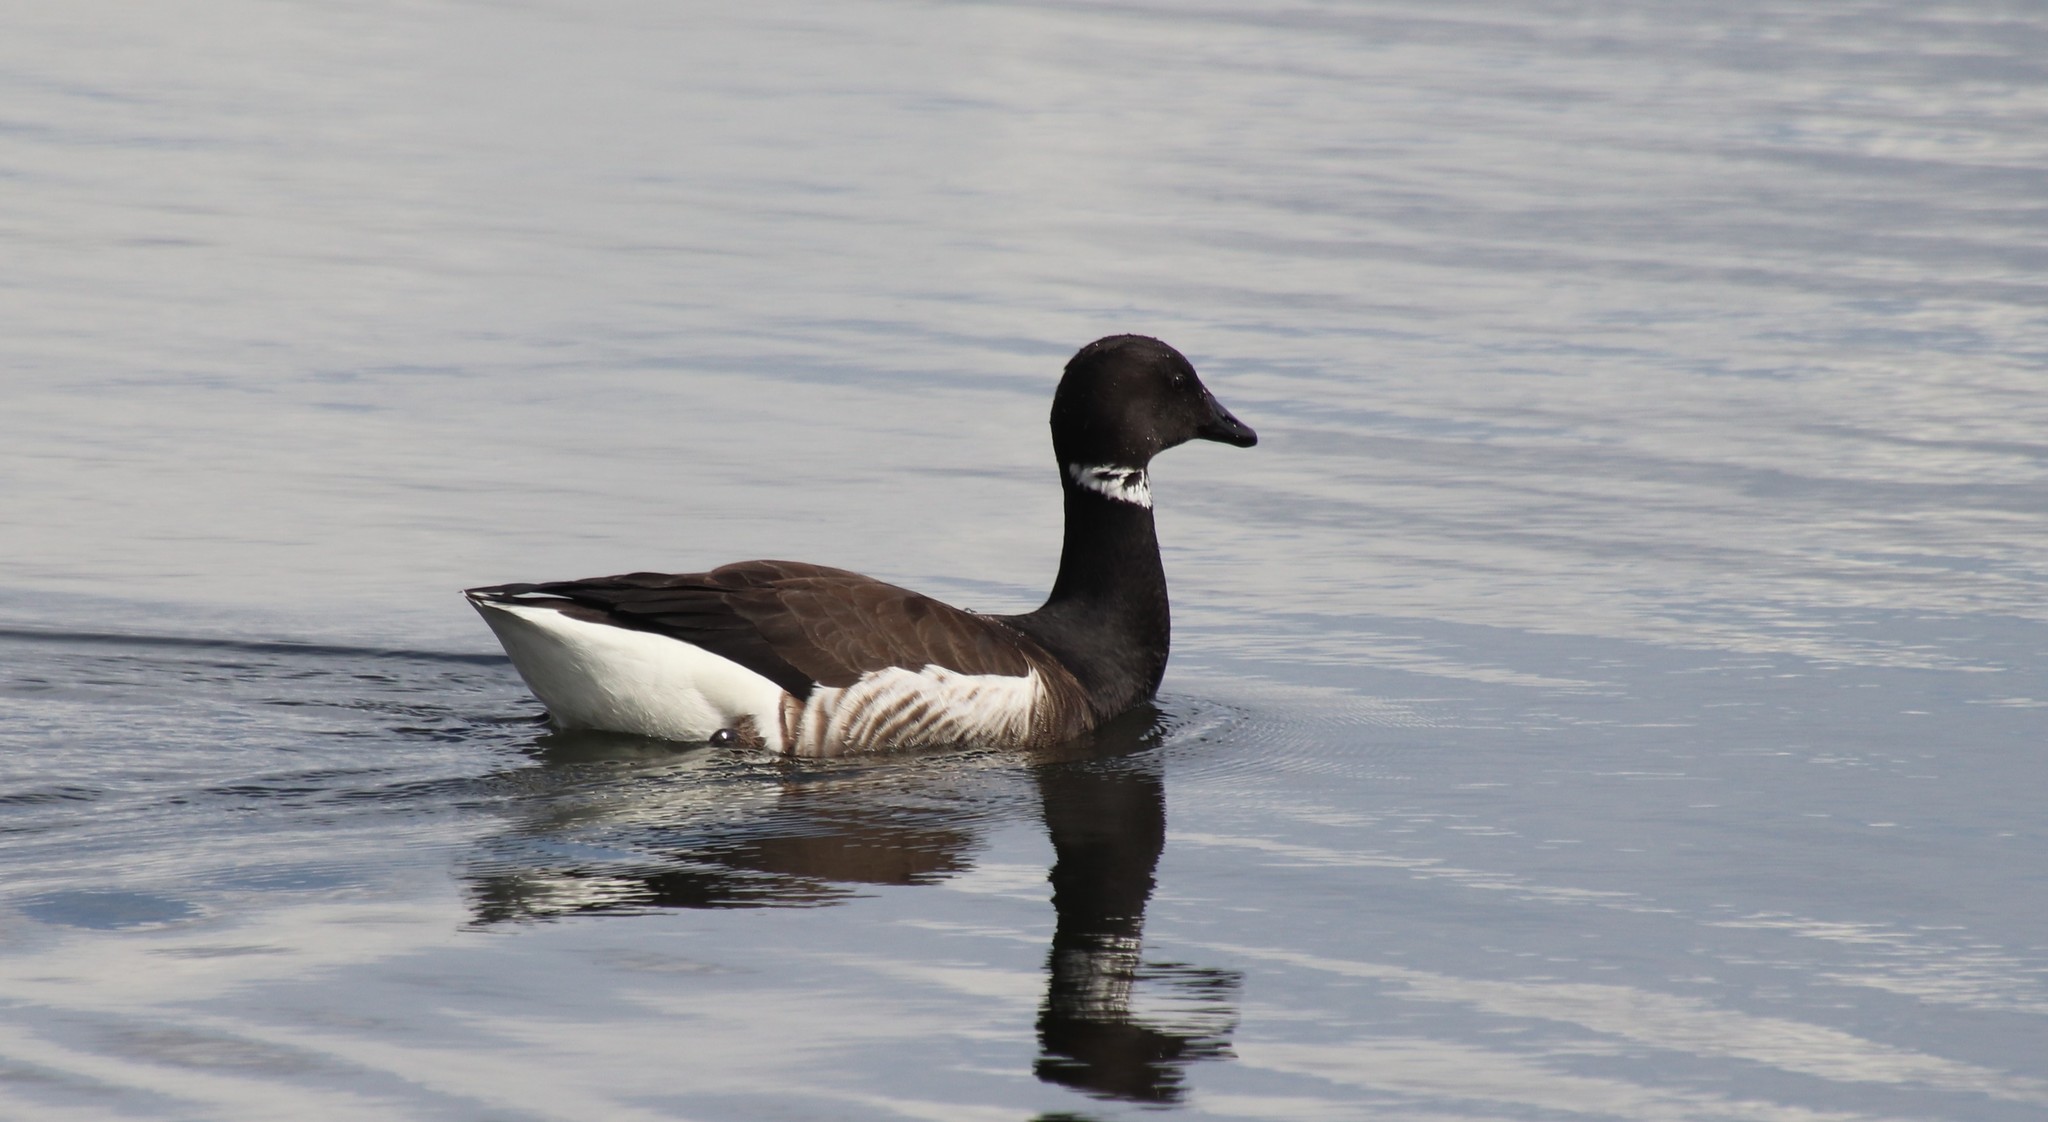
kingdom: Animalia
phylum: Chordata
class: Aves
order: Anseriformes
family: Anatidae
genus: Branta
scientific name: Branta bernicla
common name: Brant goose
